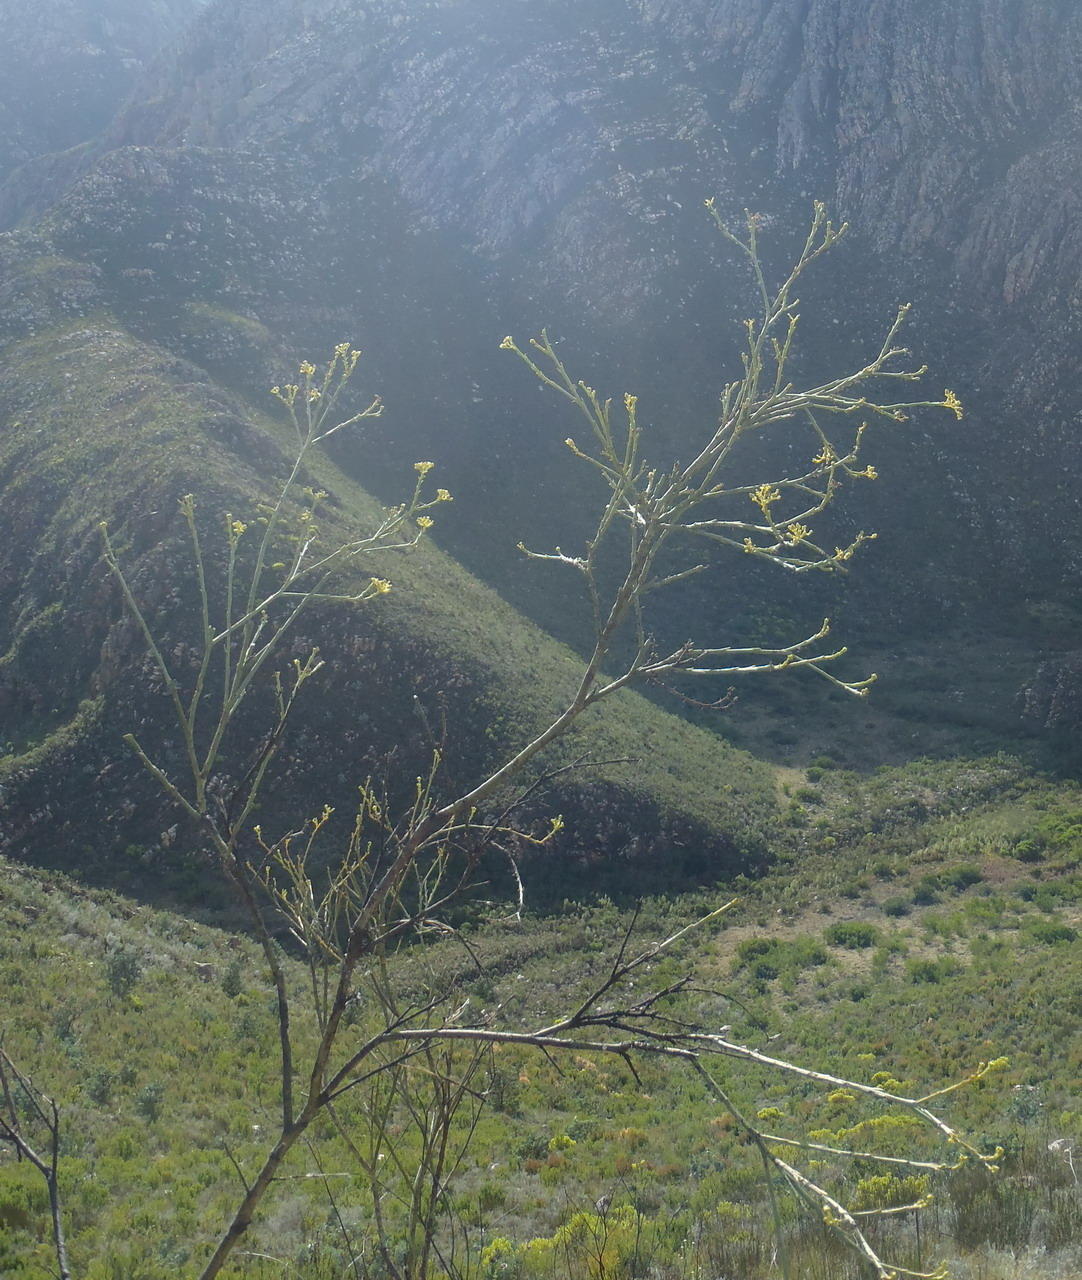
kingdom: Plantae
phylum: Tracheophyta
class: Magnoliopsida
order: Santalales
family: Thesiaceae
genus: Thesium
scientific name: Thesium strictum
